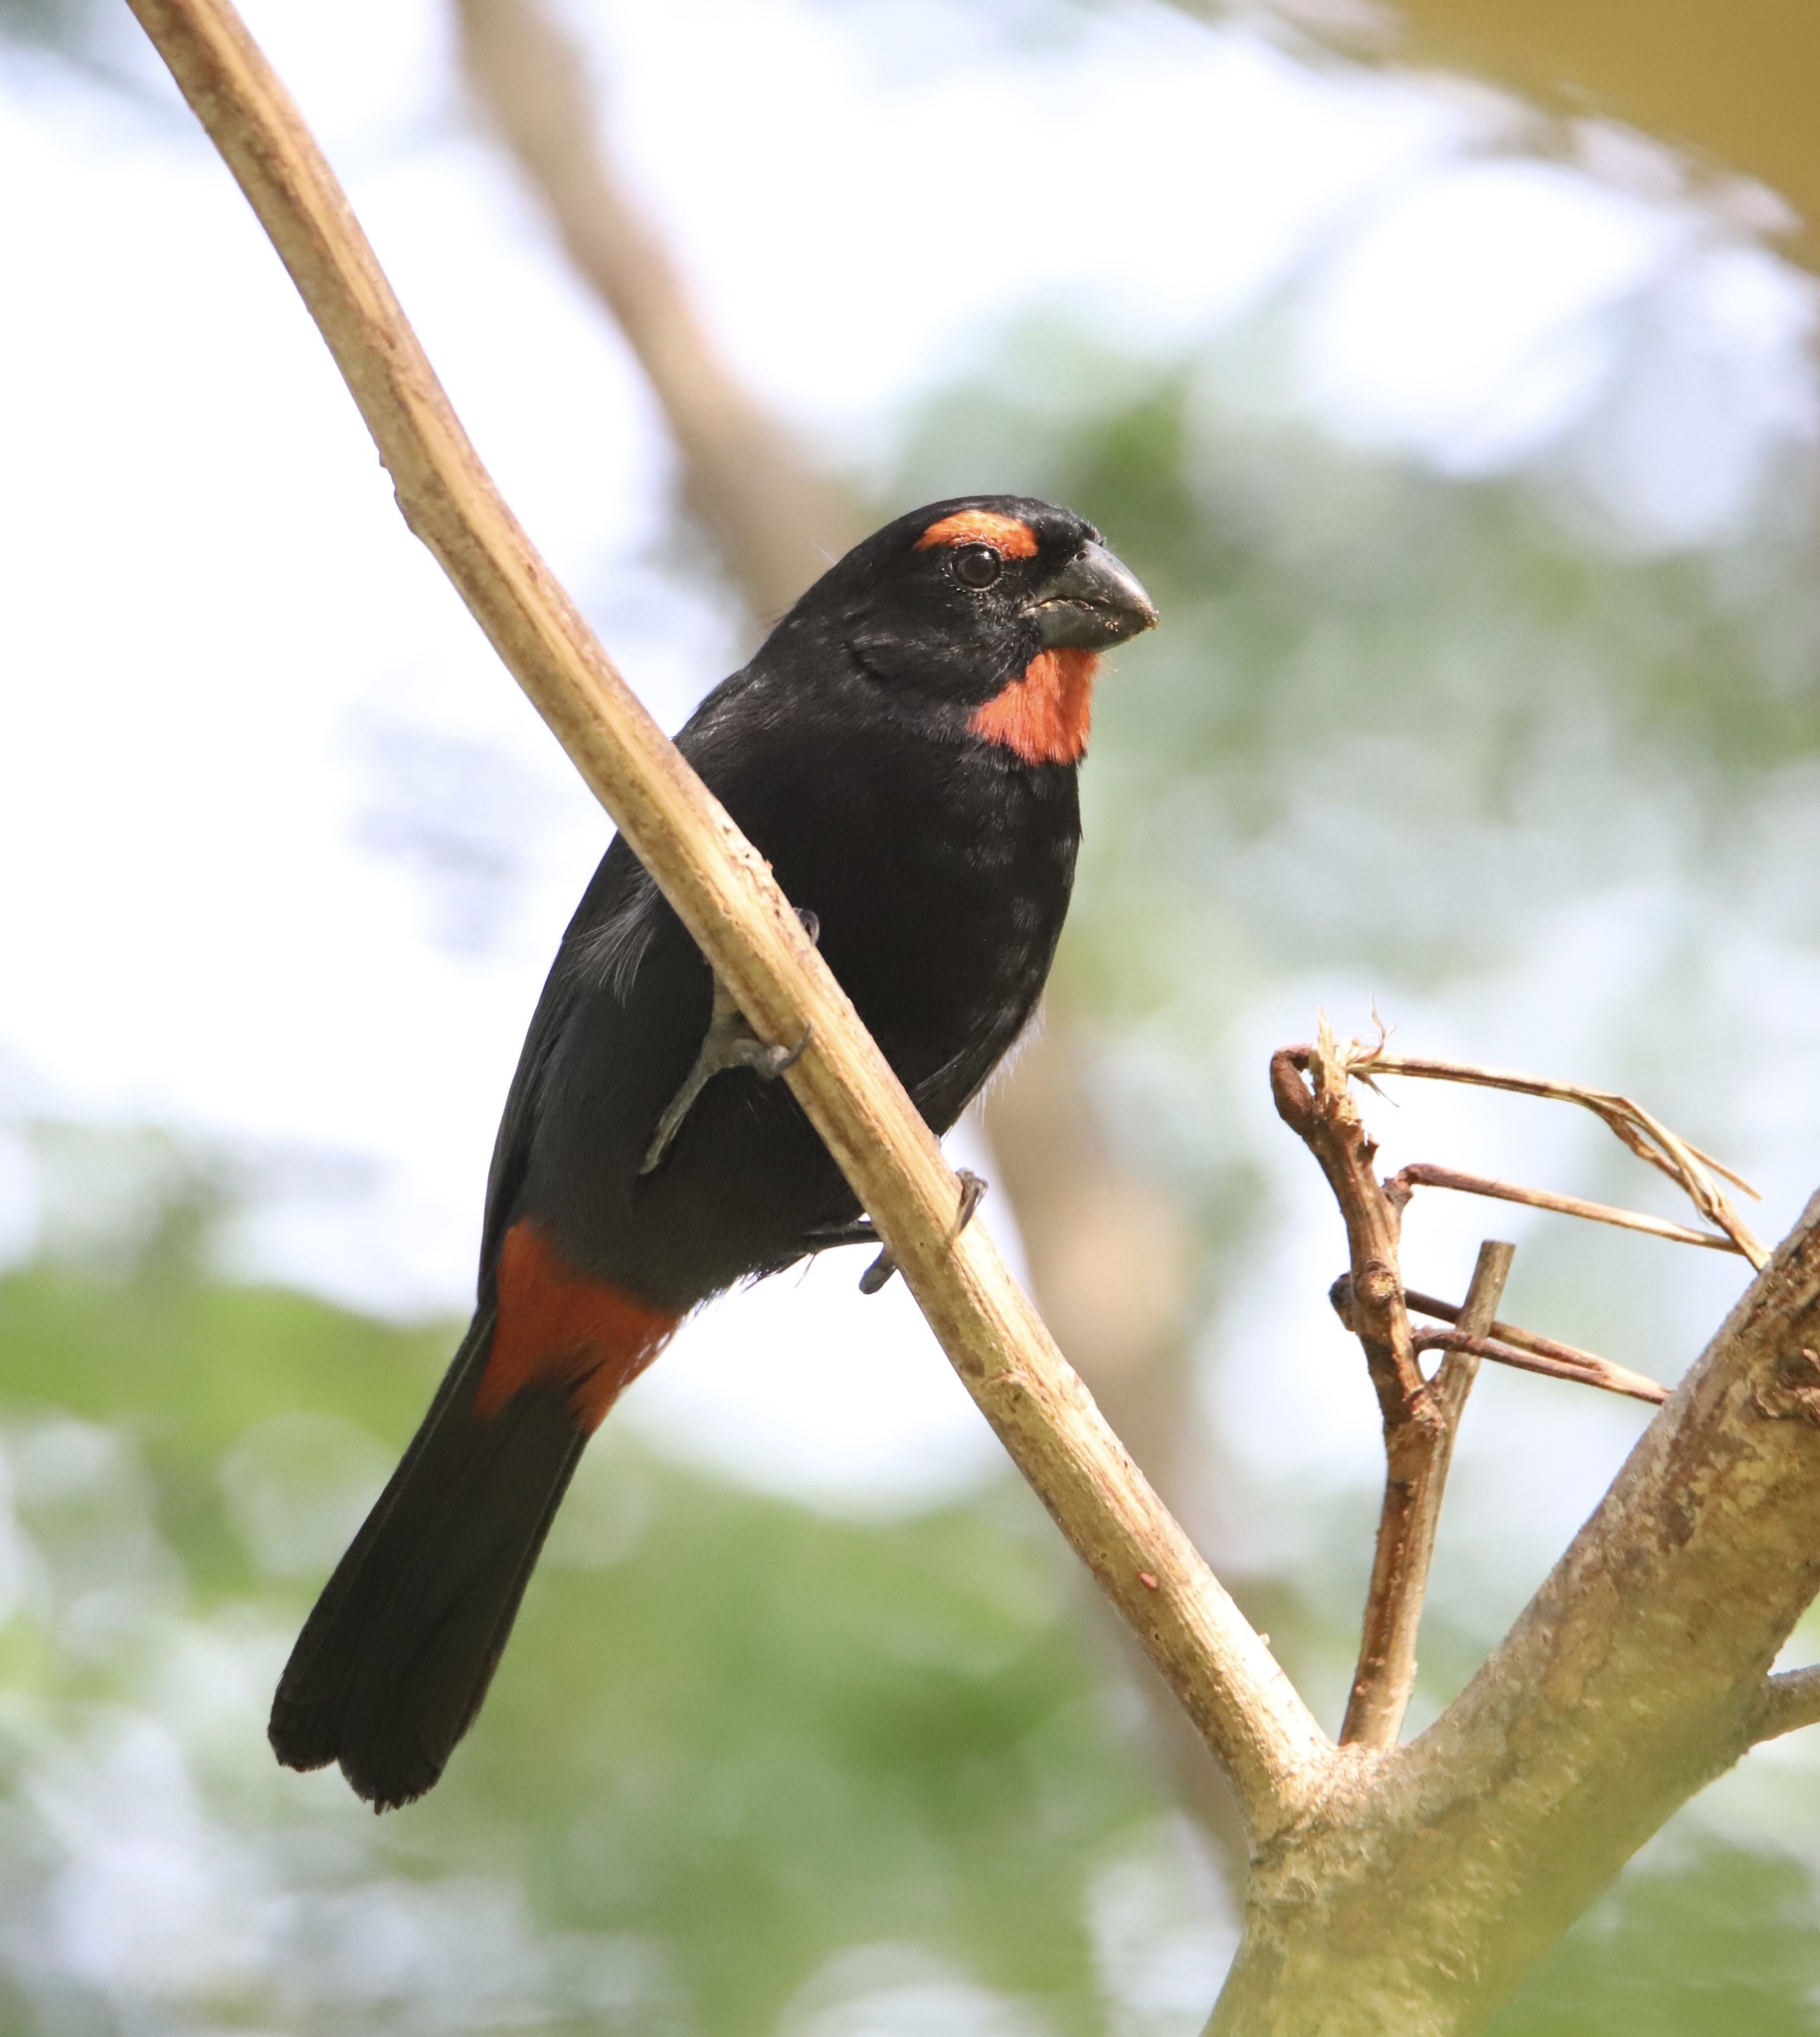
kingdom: Animalia
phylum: Chordata
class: Aves
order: Passeriformes
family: Thraupidae
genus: Melopyrrha
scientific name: Melopyrrha violacea
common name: Greater antillean bullfinch
